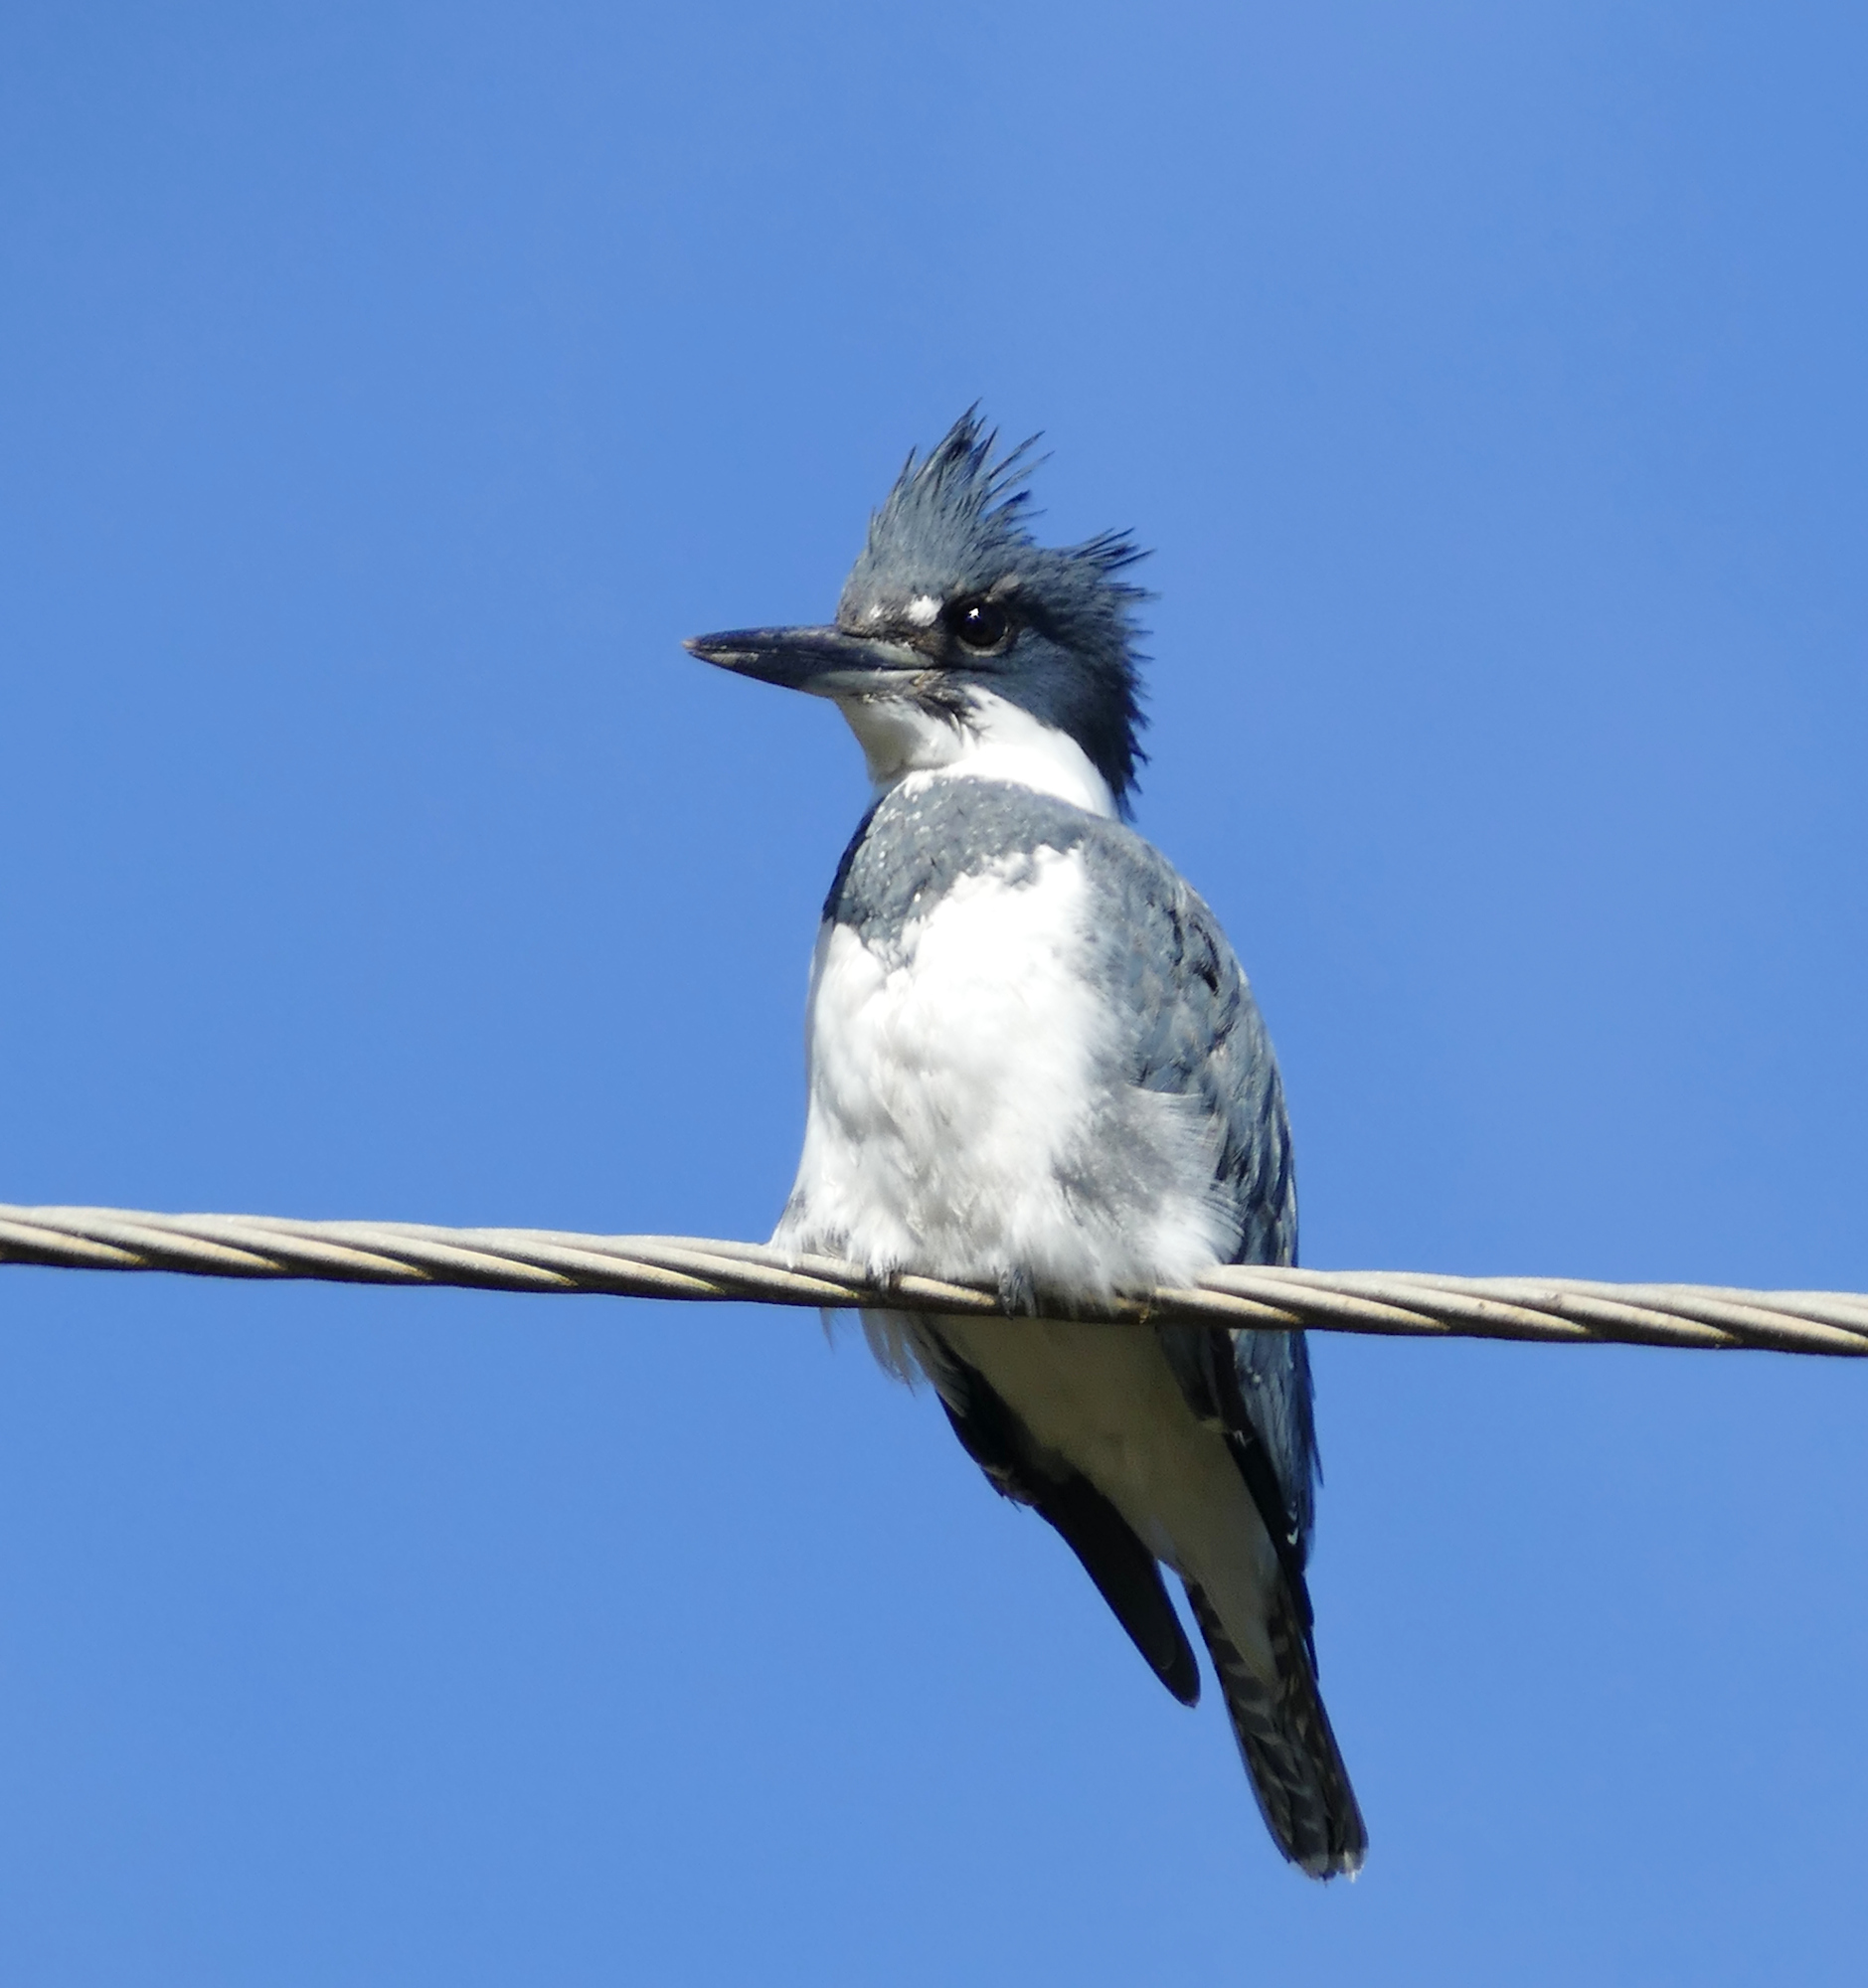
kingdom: Animalia
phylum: Chordata
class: Aves
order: Coraciiformes
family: Alcedinidae
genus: Megaceryle
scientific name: Megaceryle alcyon
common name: Belted kingfisher
